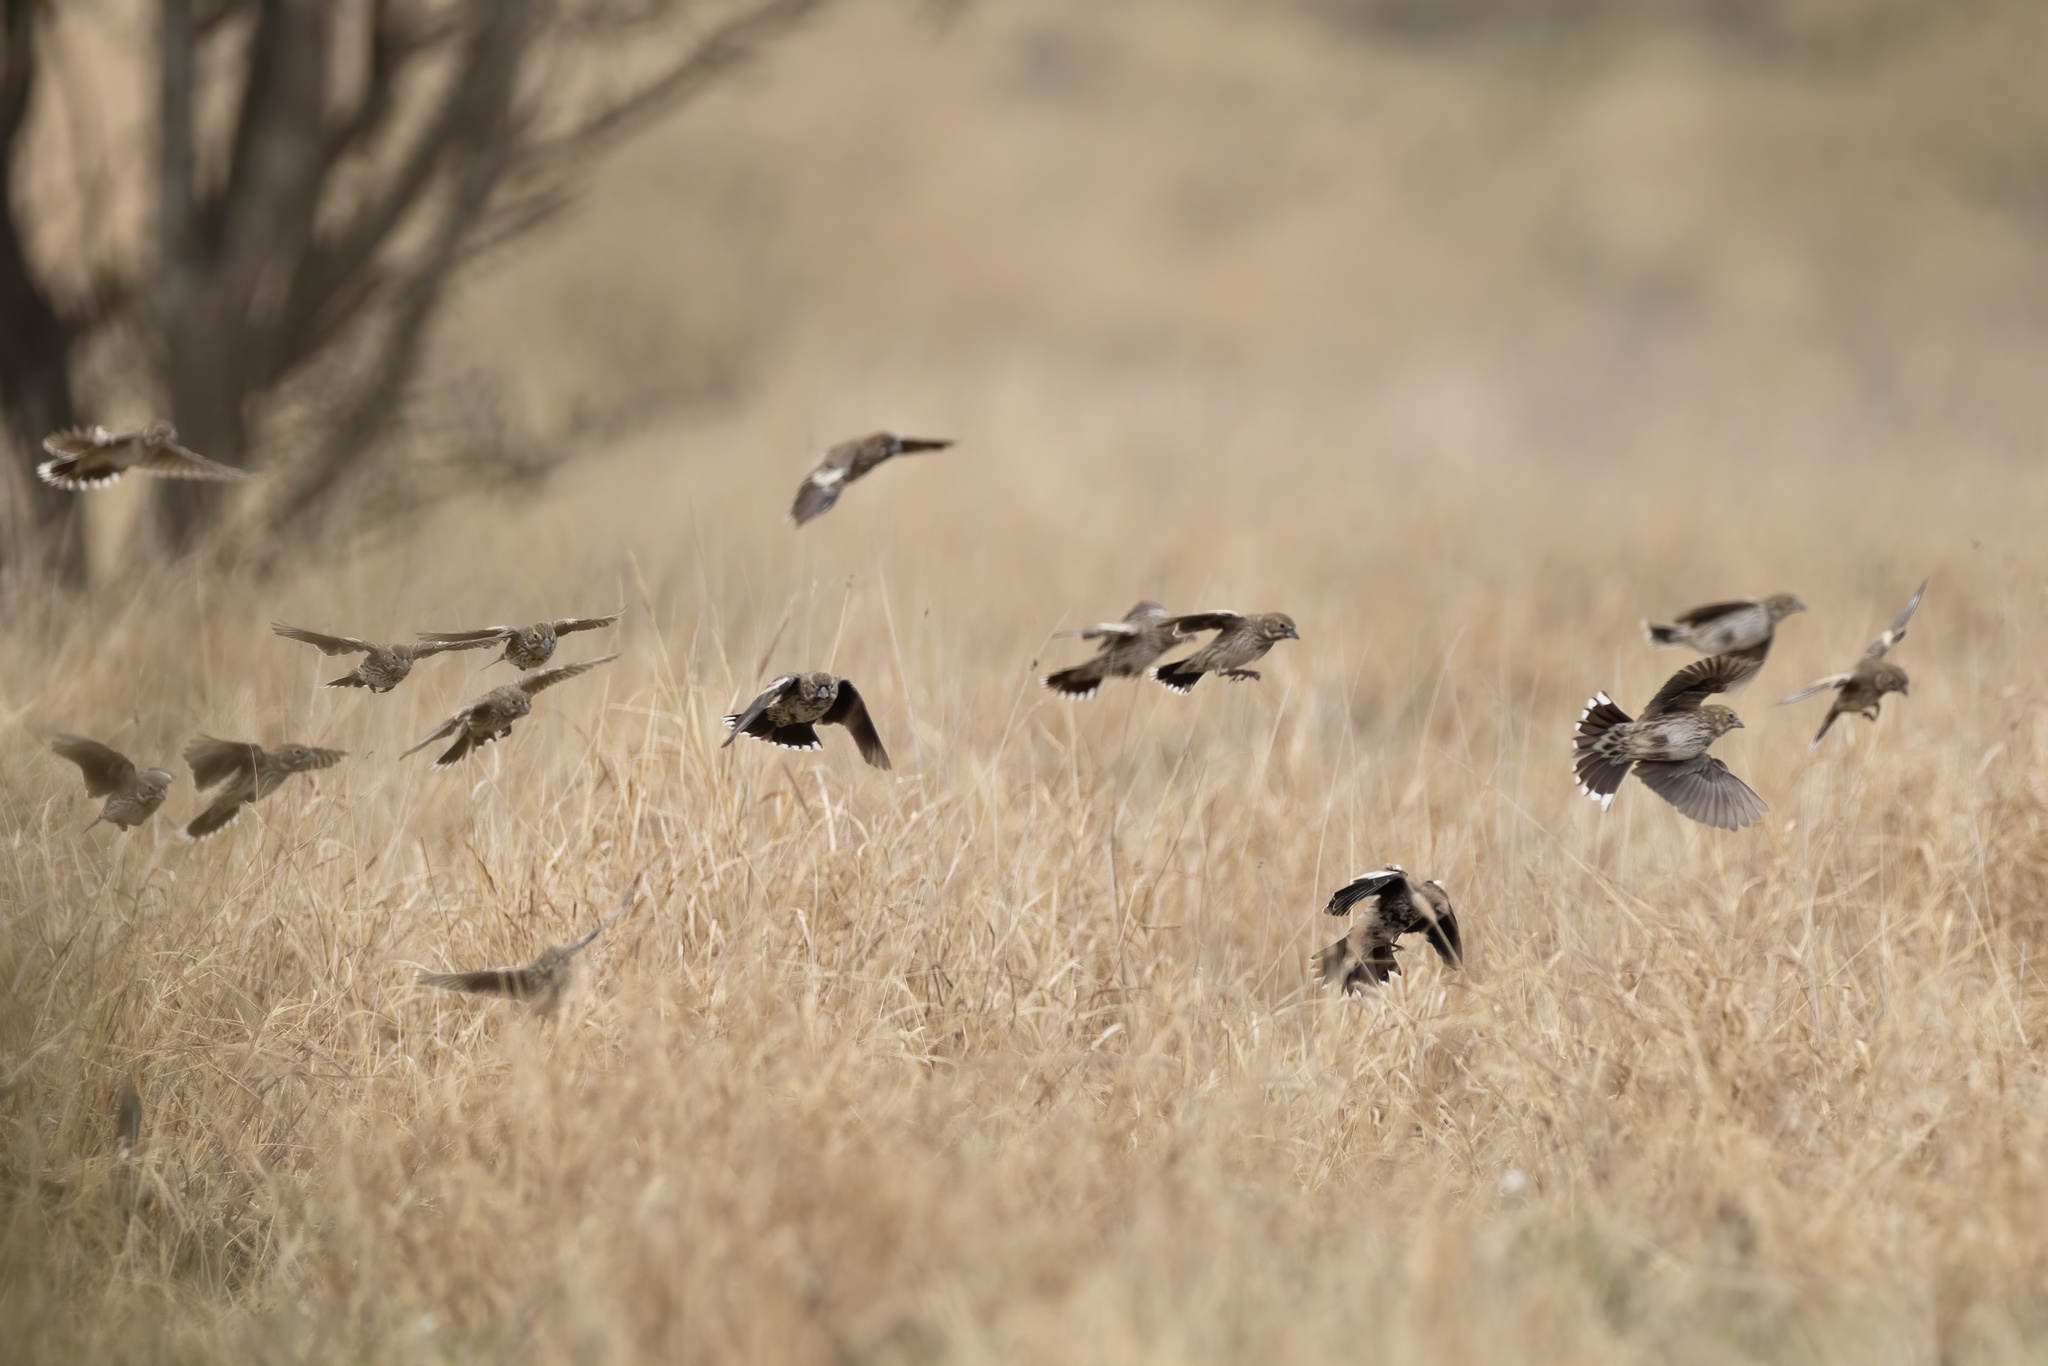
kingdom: Animalia
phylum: Chordata
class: Aves
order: Passeriformes
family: Passerellidae
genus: Calamospiza
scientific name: Calamospiza melanocorys
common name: Lark bunting
